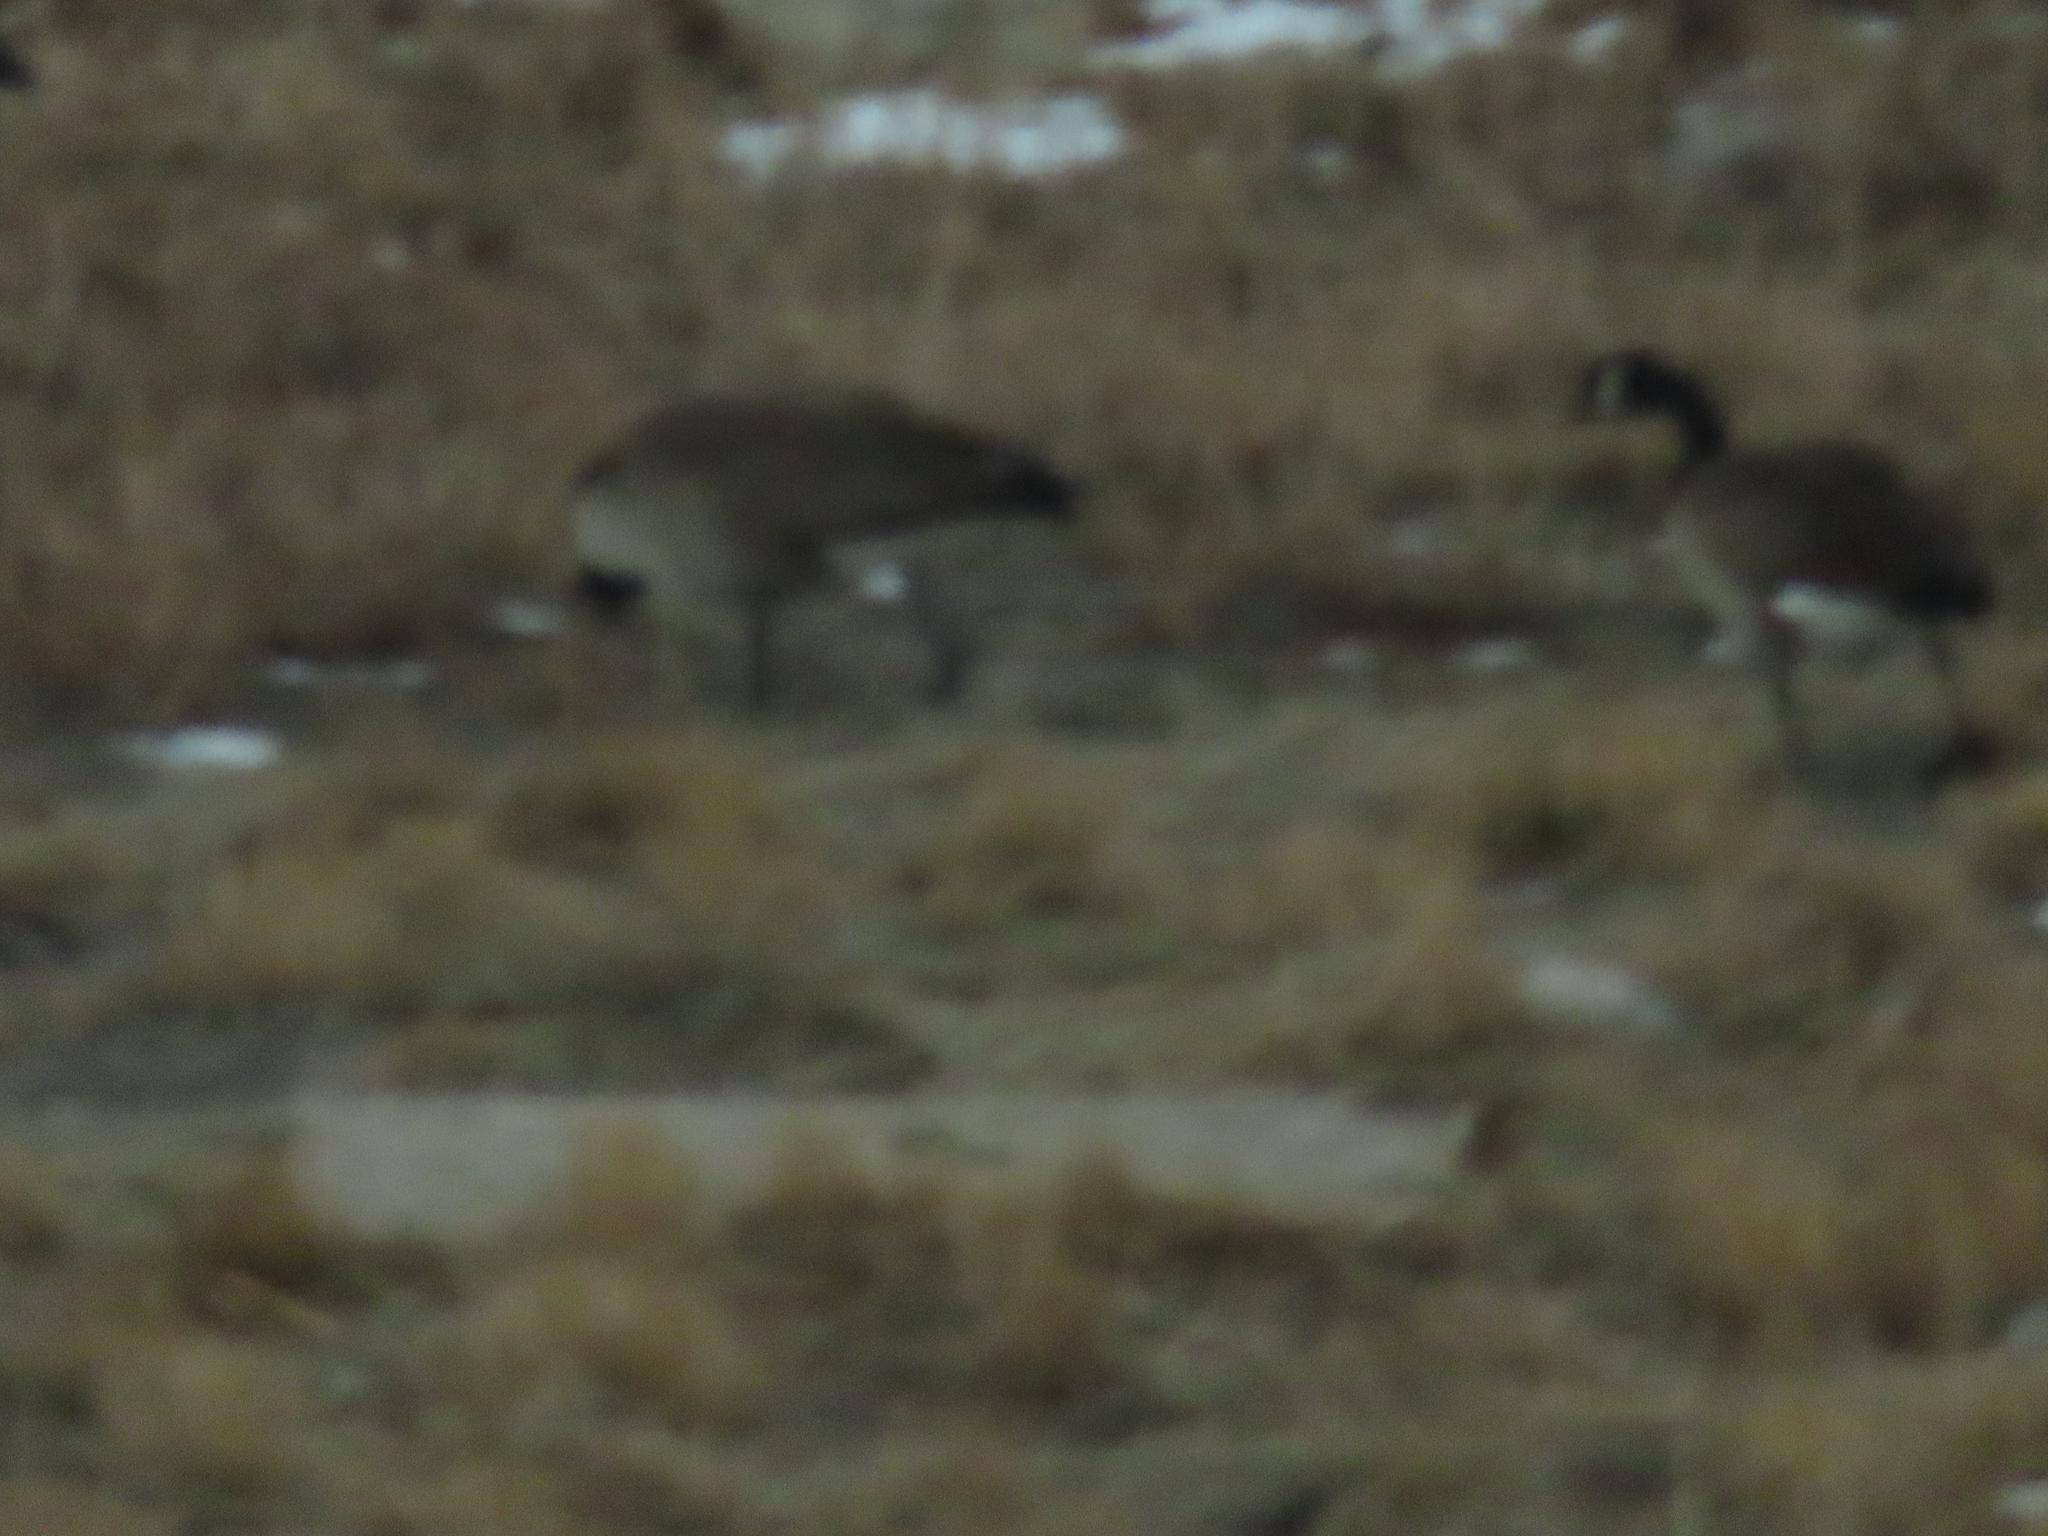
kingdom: Animalia
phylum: Chordata
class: Aves
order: Anseriformes
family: Anatidae
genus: Branta
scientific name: Branta canadensis
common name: Canada goose
